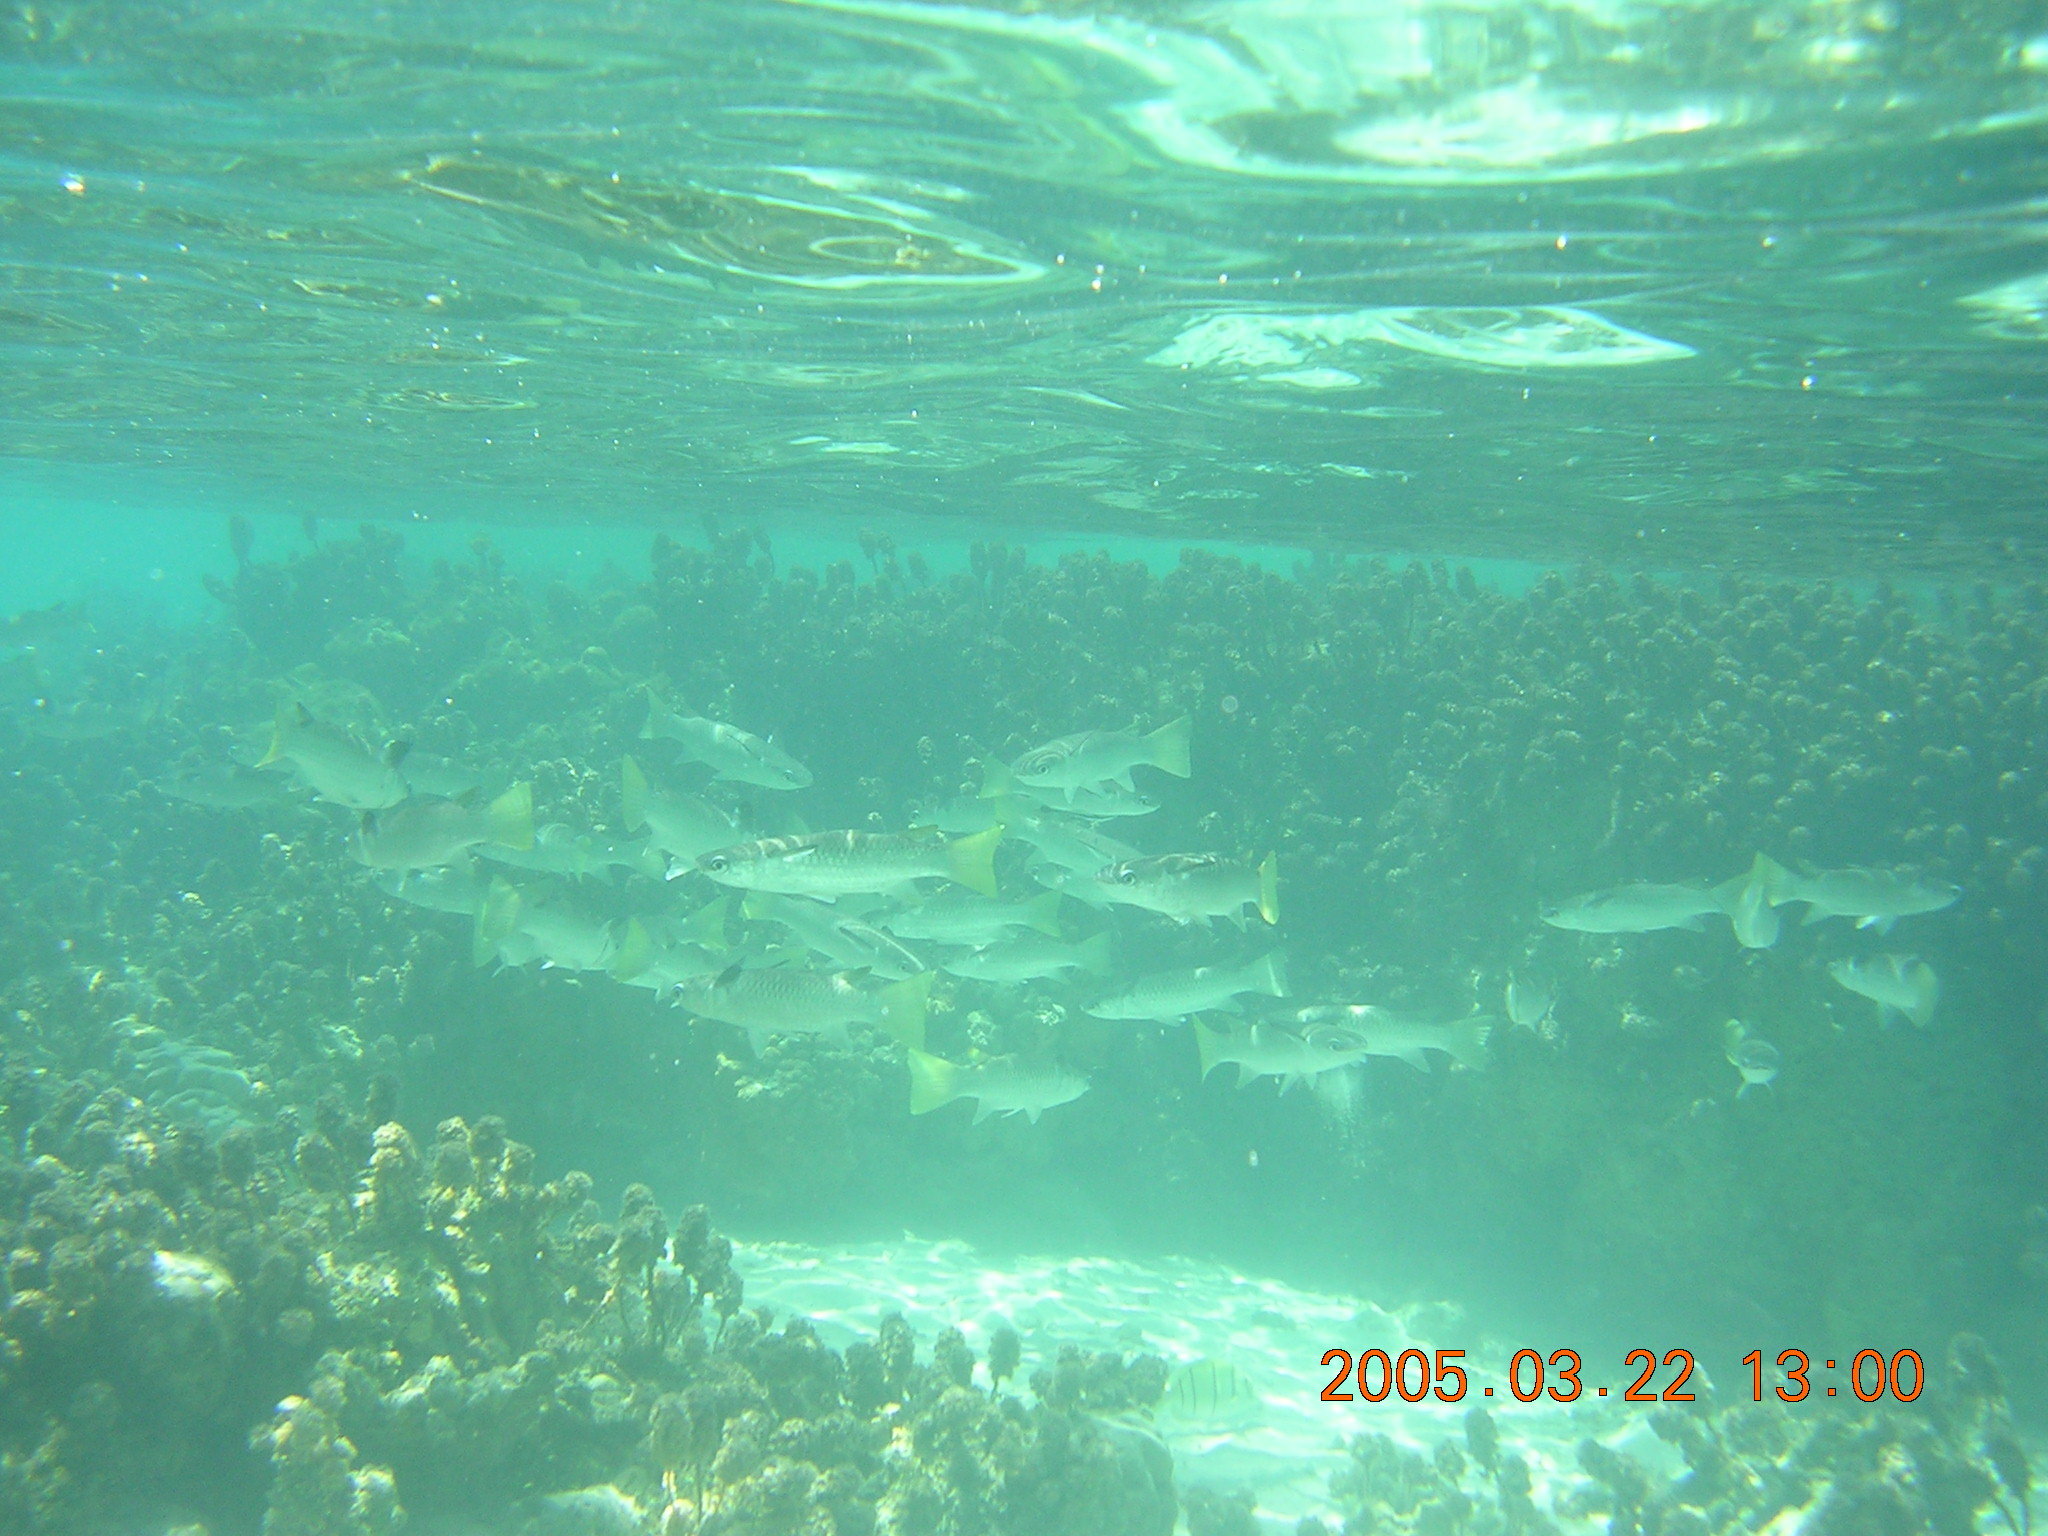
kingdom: Animalia
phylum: Chordata
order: Mugiliformes
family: Mugilidae
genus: Ellochelon
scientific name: Ellochelon vaigiensis
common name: Squaretail mullet
